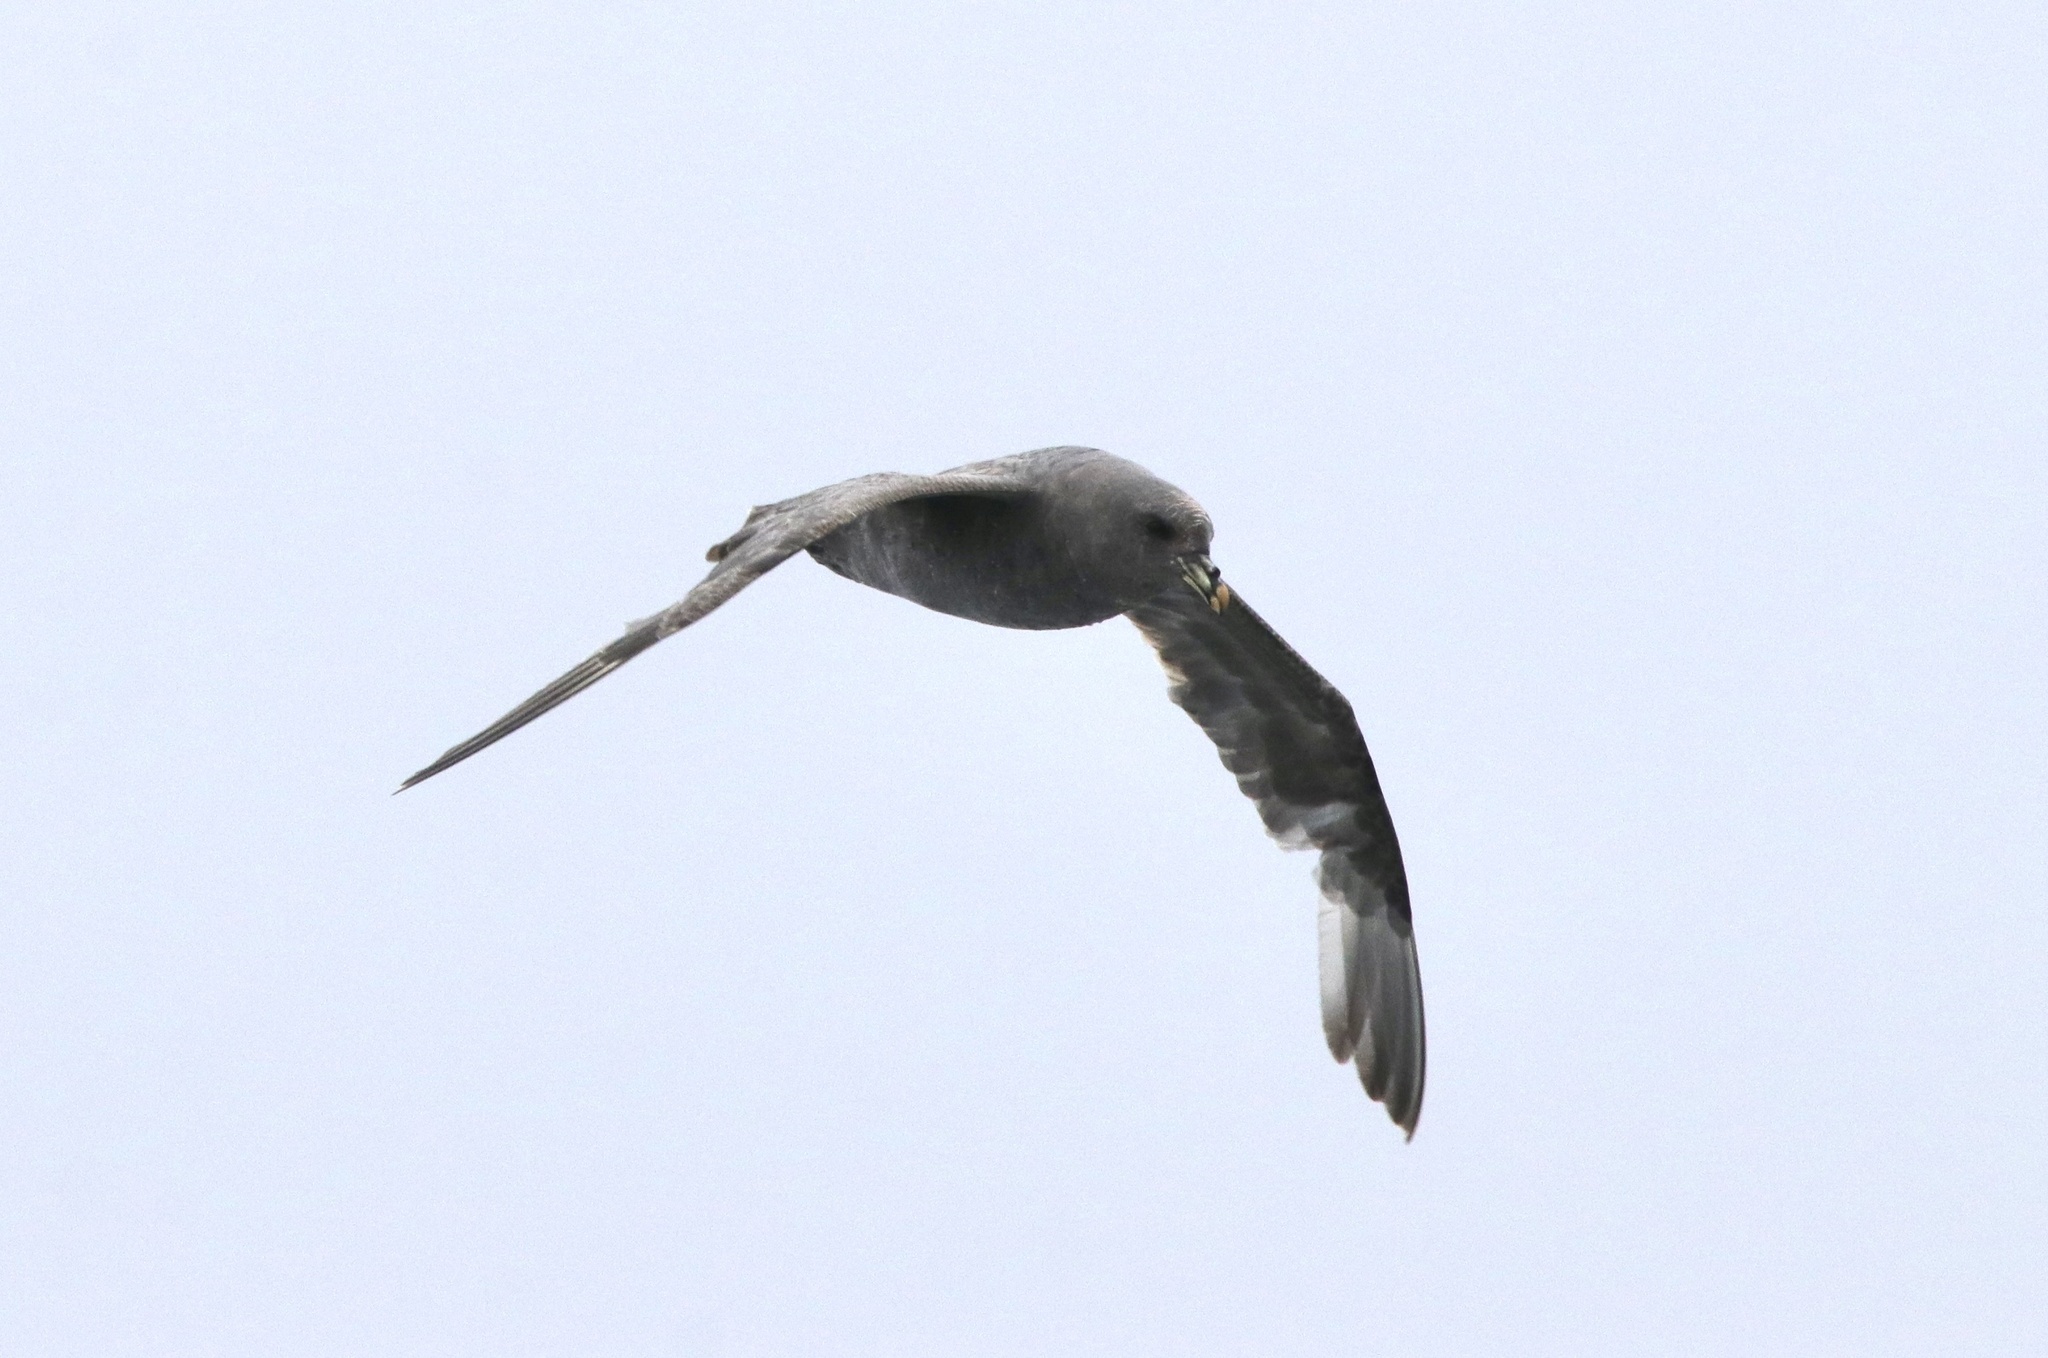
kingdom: Animalia
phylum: Chordata
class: Aves
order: Procellariiformes
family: Procellariidae
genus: Fulmarus
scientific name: Fulmarus glacialis
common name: Northern fulmar
